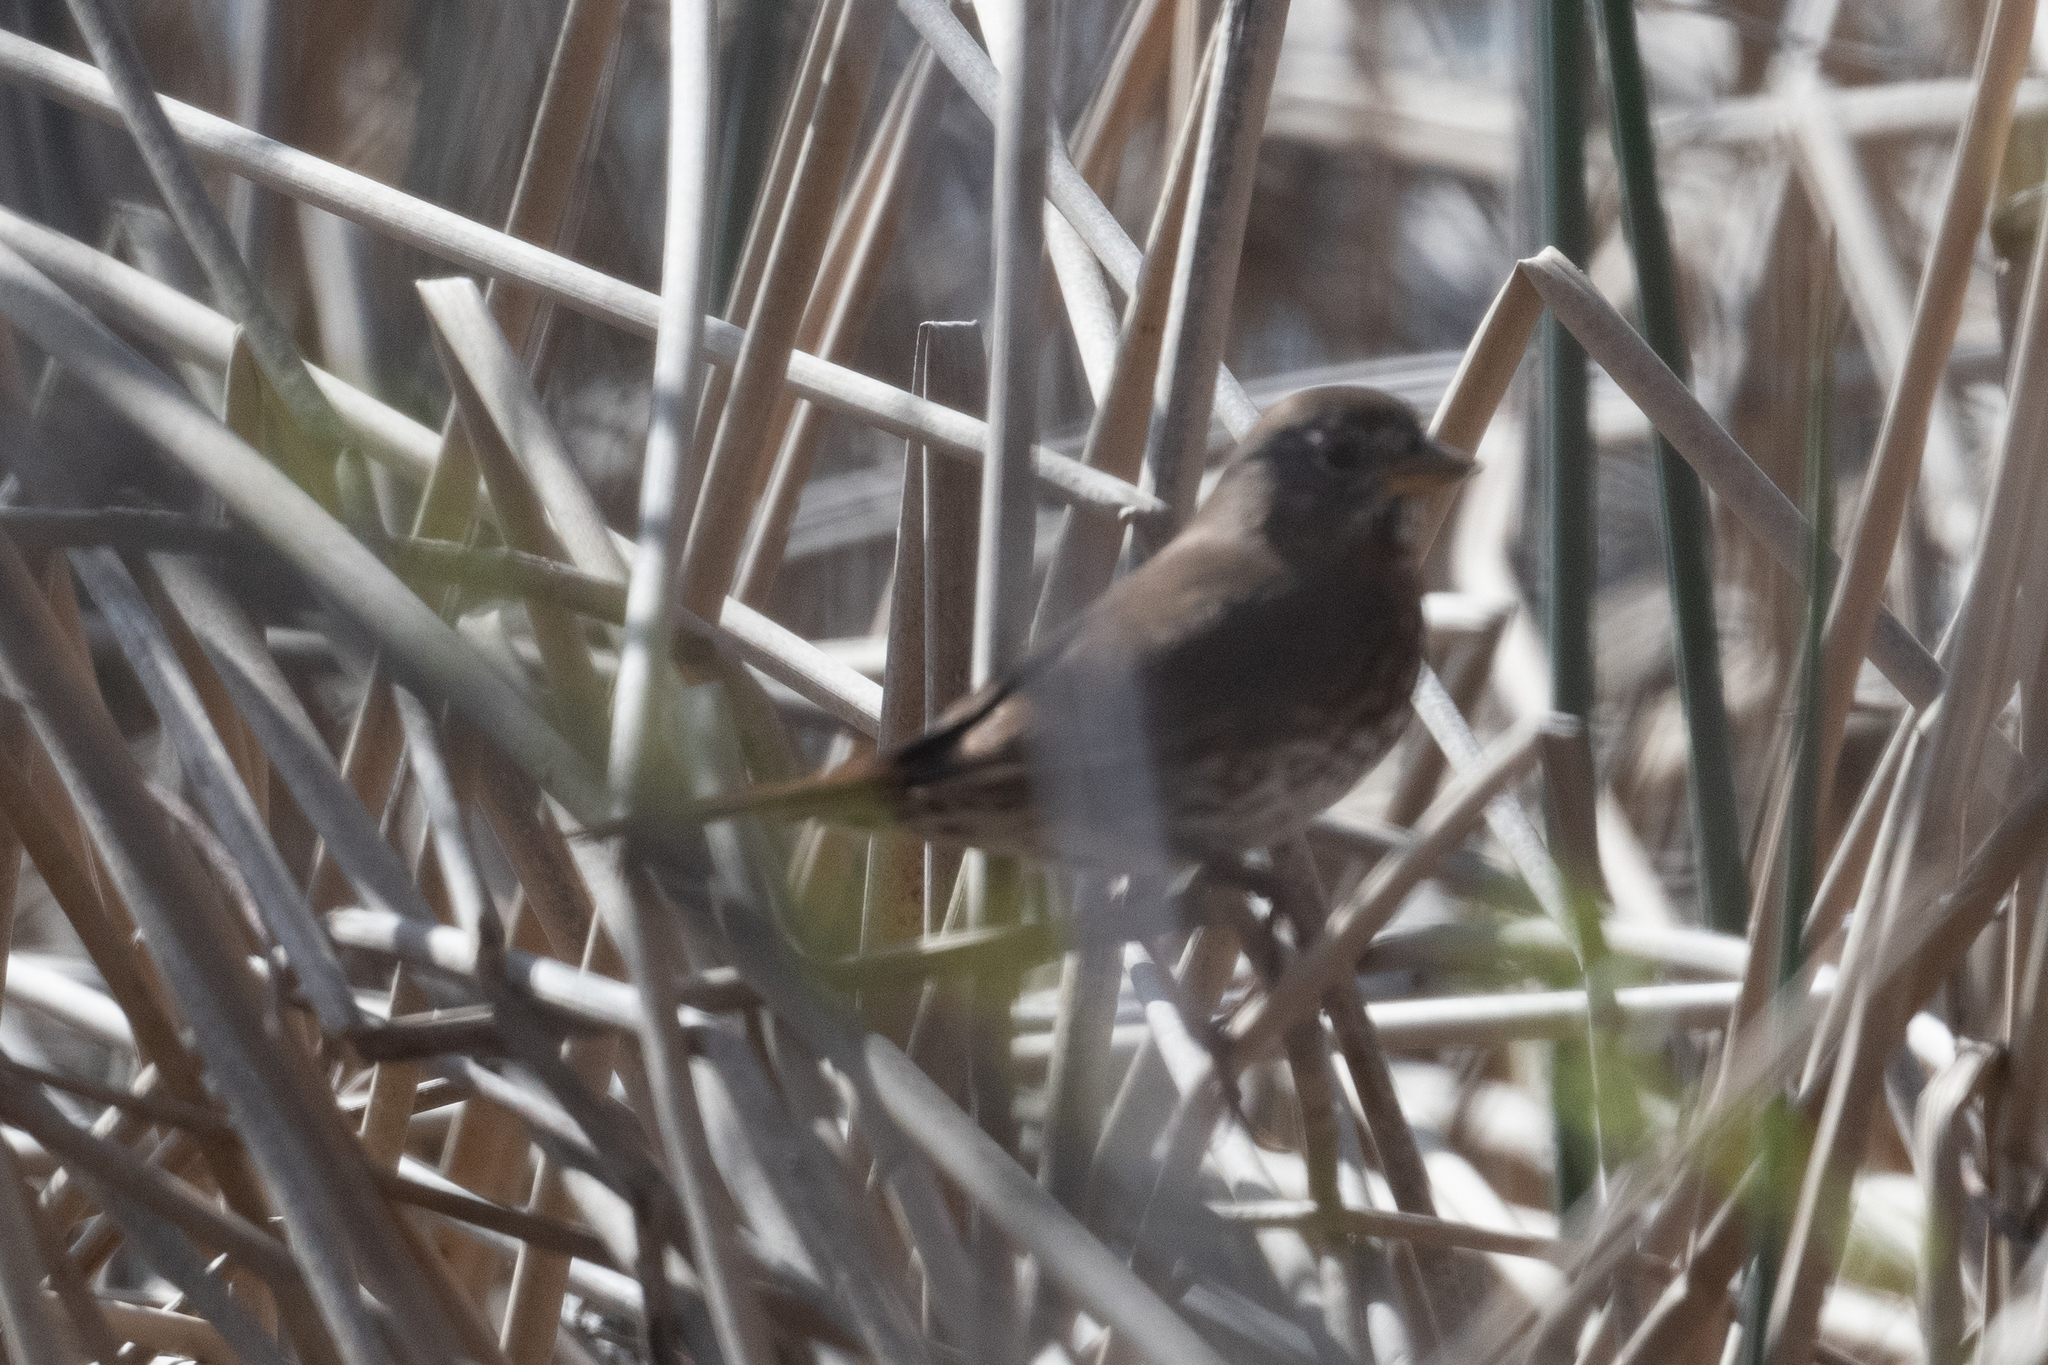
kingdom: Animalia
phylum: Chordata
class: Aves
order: Passeriformes
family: Passerellidae
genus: Passerella
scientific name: Passerella iliaca
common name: Fox sparrow
